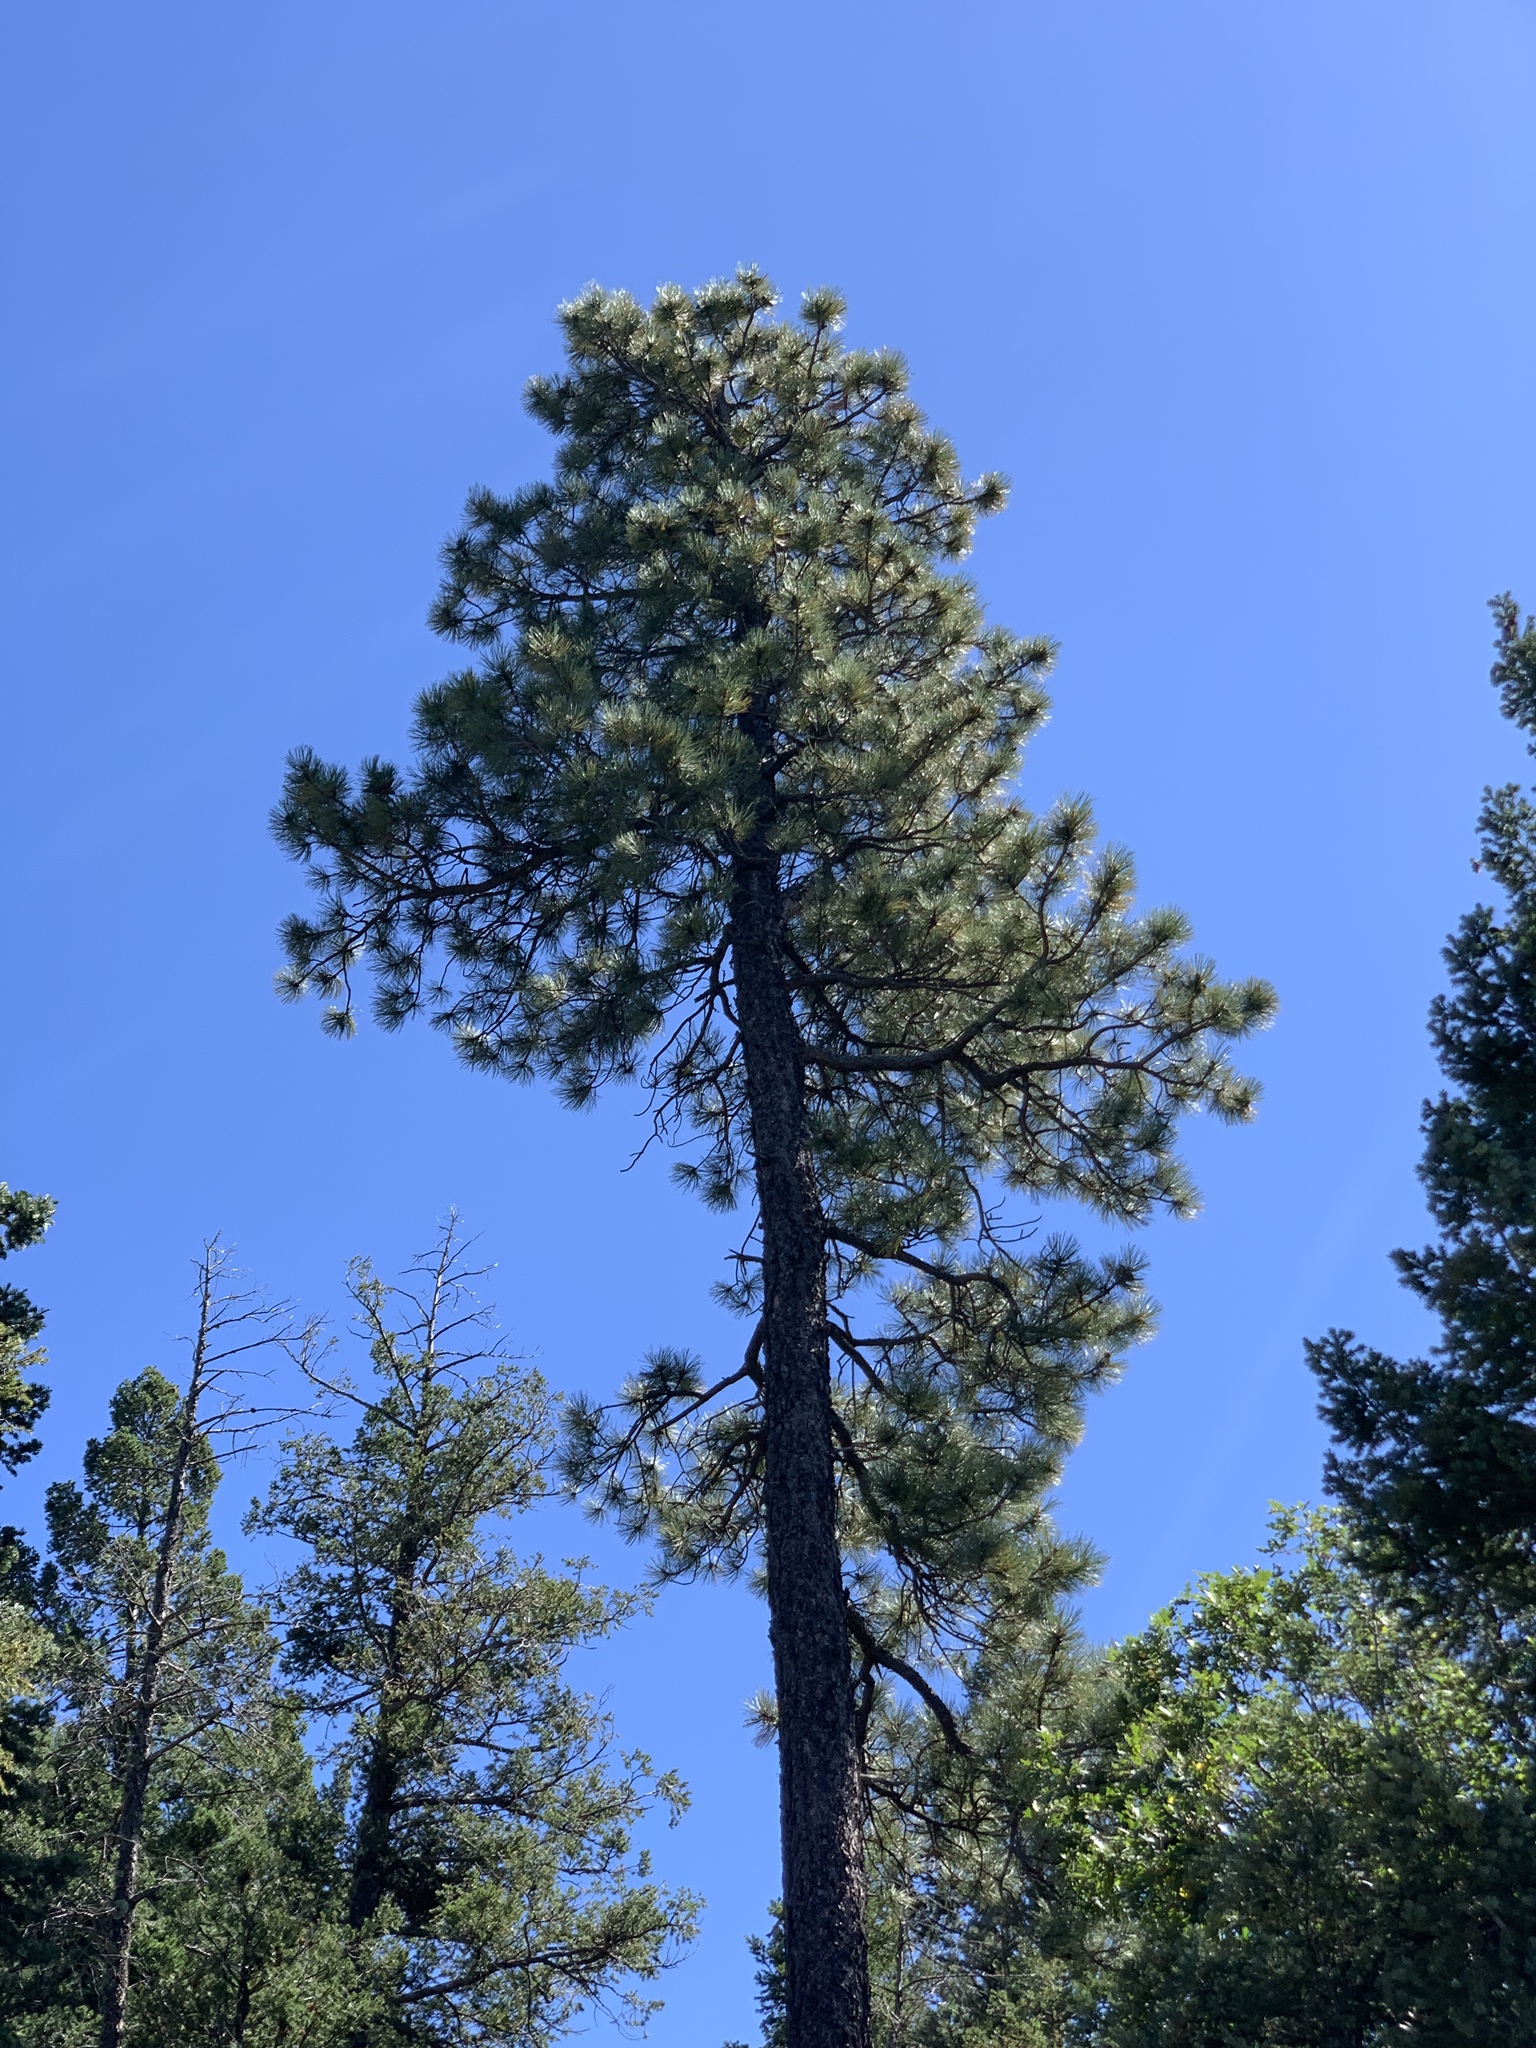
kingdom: Plantae
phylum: Tracheophyta
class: Pinopsida
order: Pinales
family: Pinaceae
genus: Pinus
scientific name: Pinus ponderosa
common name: Western yellow-pine
